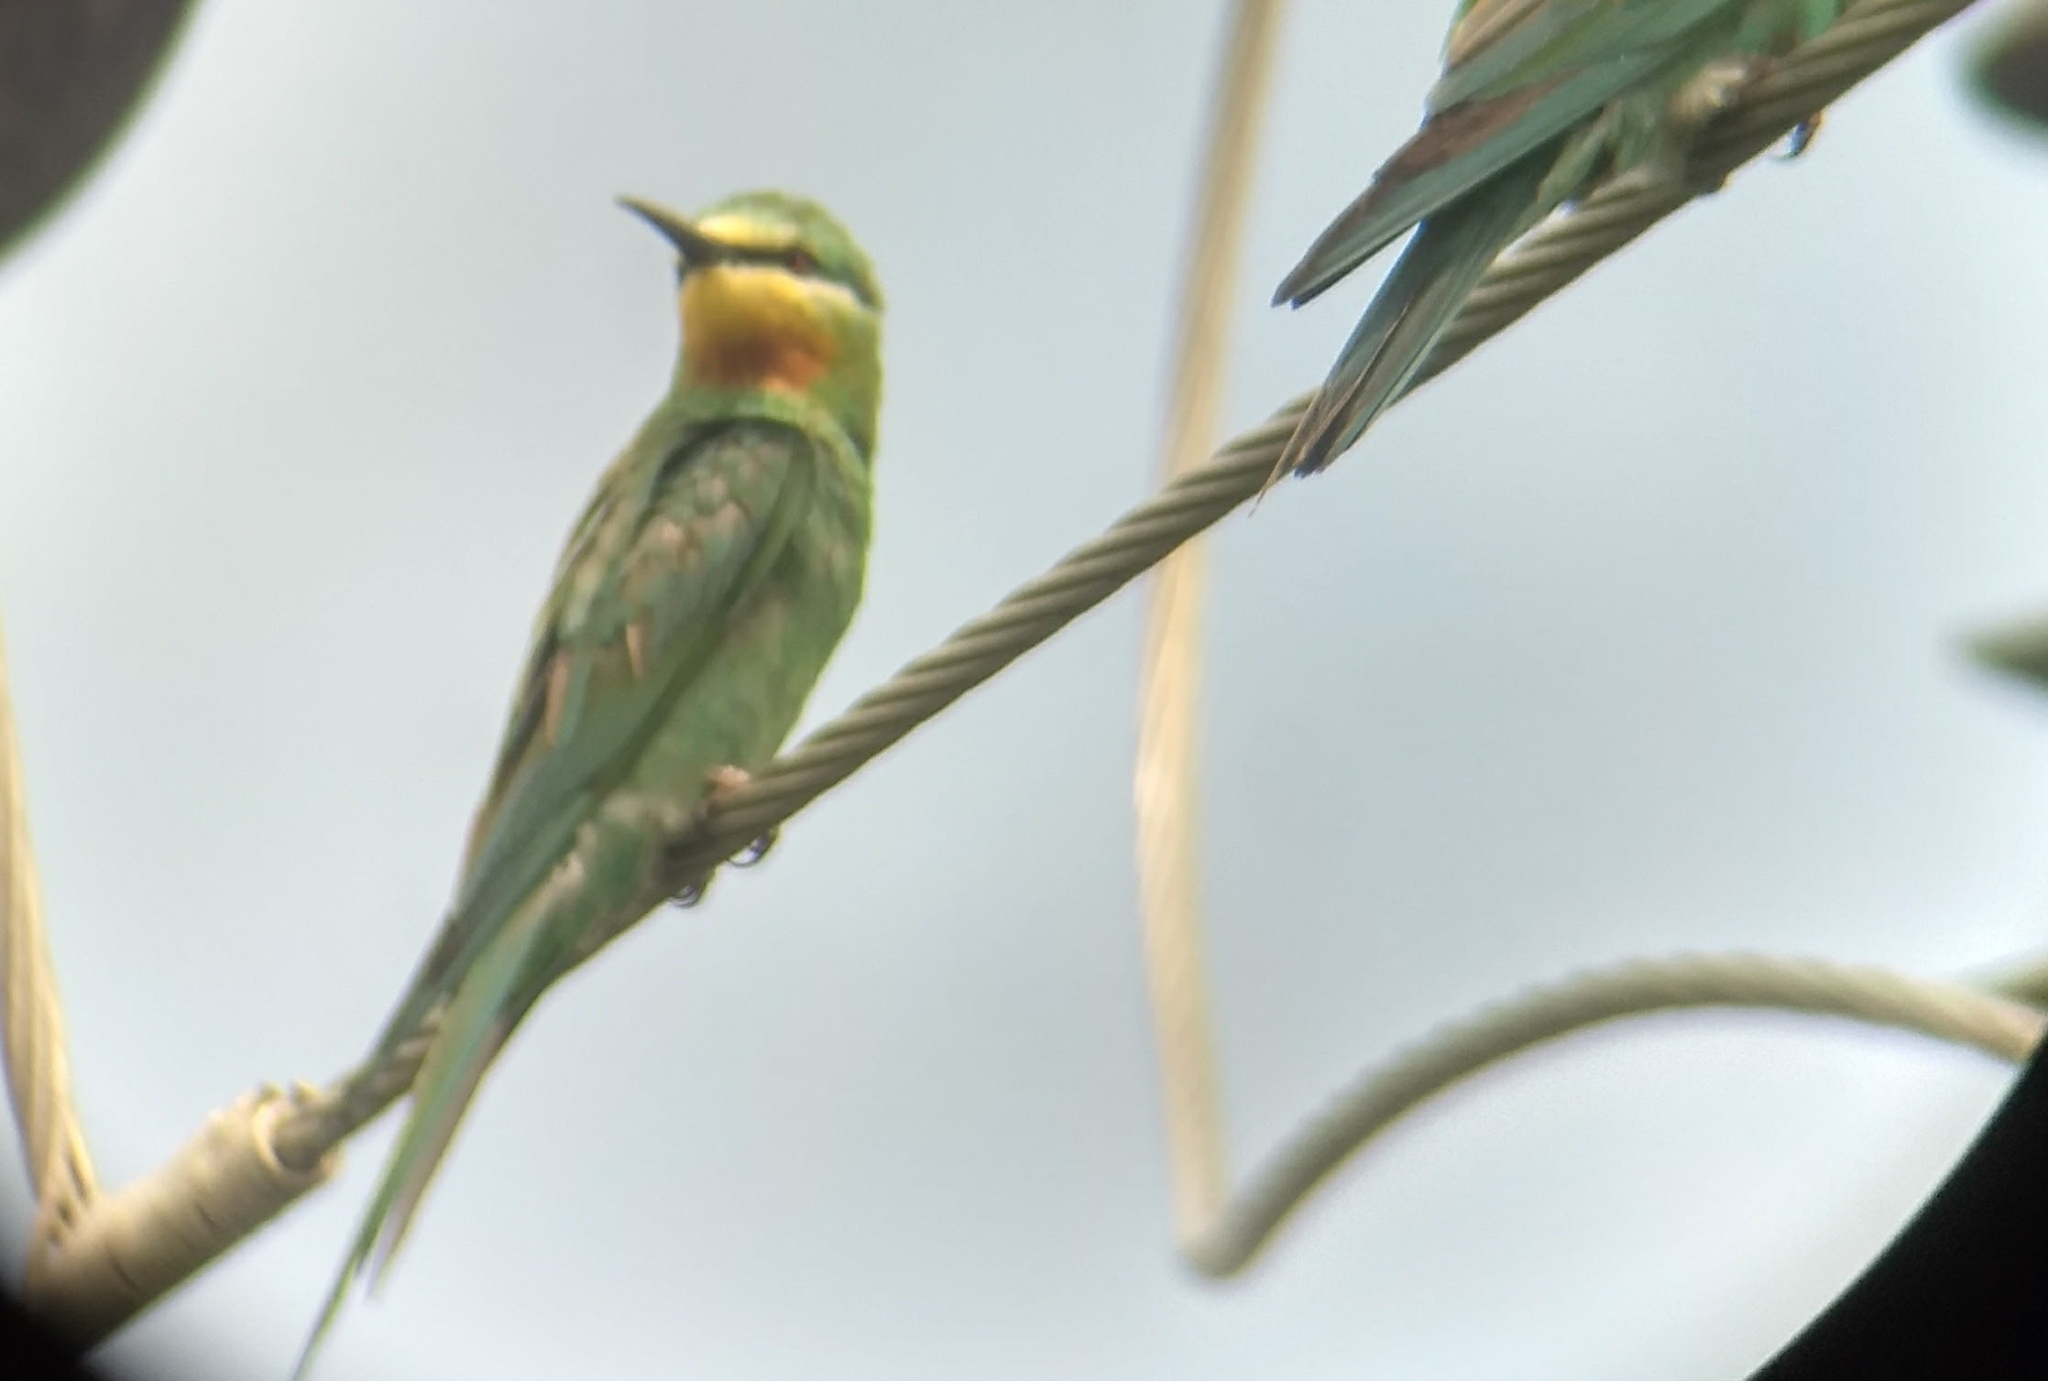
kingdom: Animalia
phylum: Chordata
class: Aves
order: Coraciiformes
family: Meropidae
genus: Merops
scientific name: Merops persicus
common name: Blue-cheeked bee-eater
